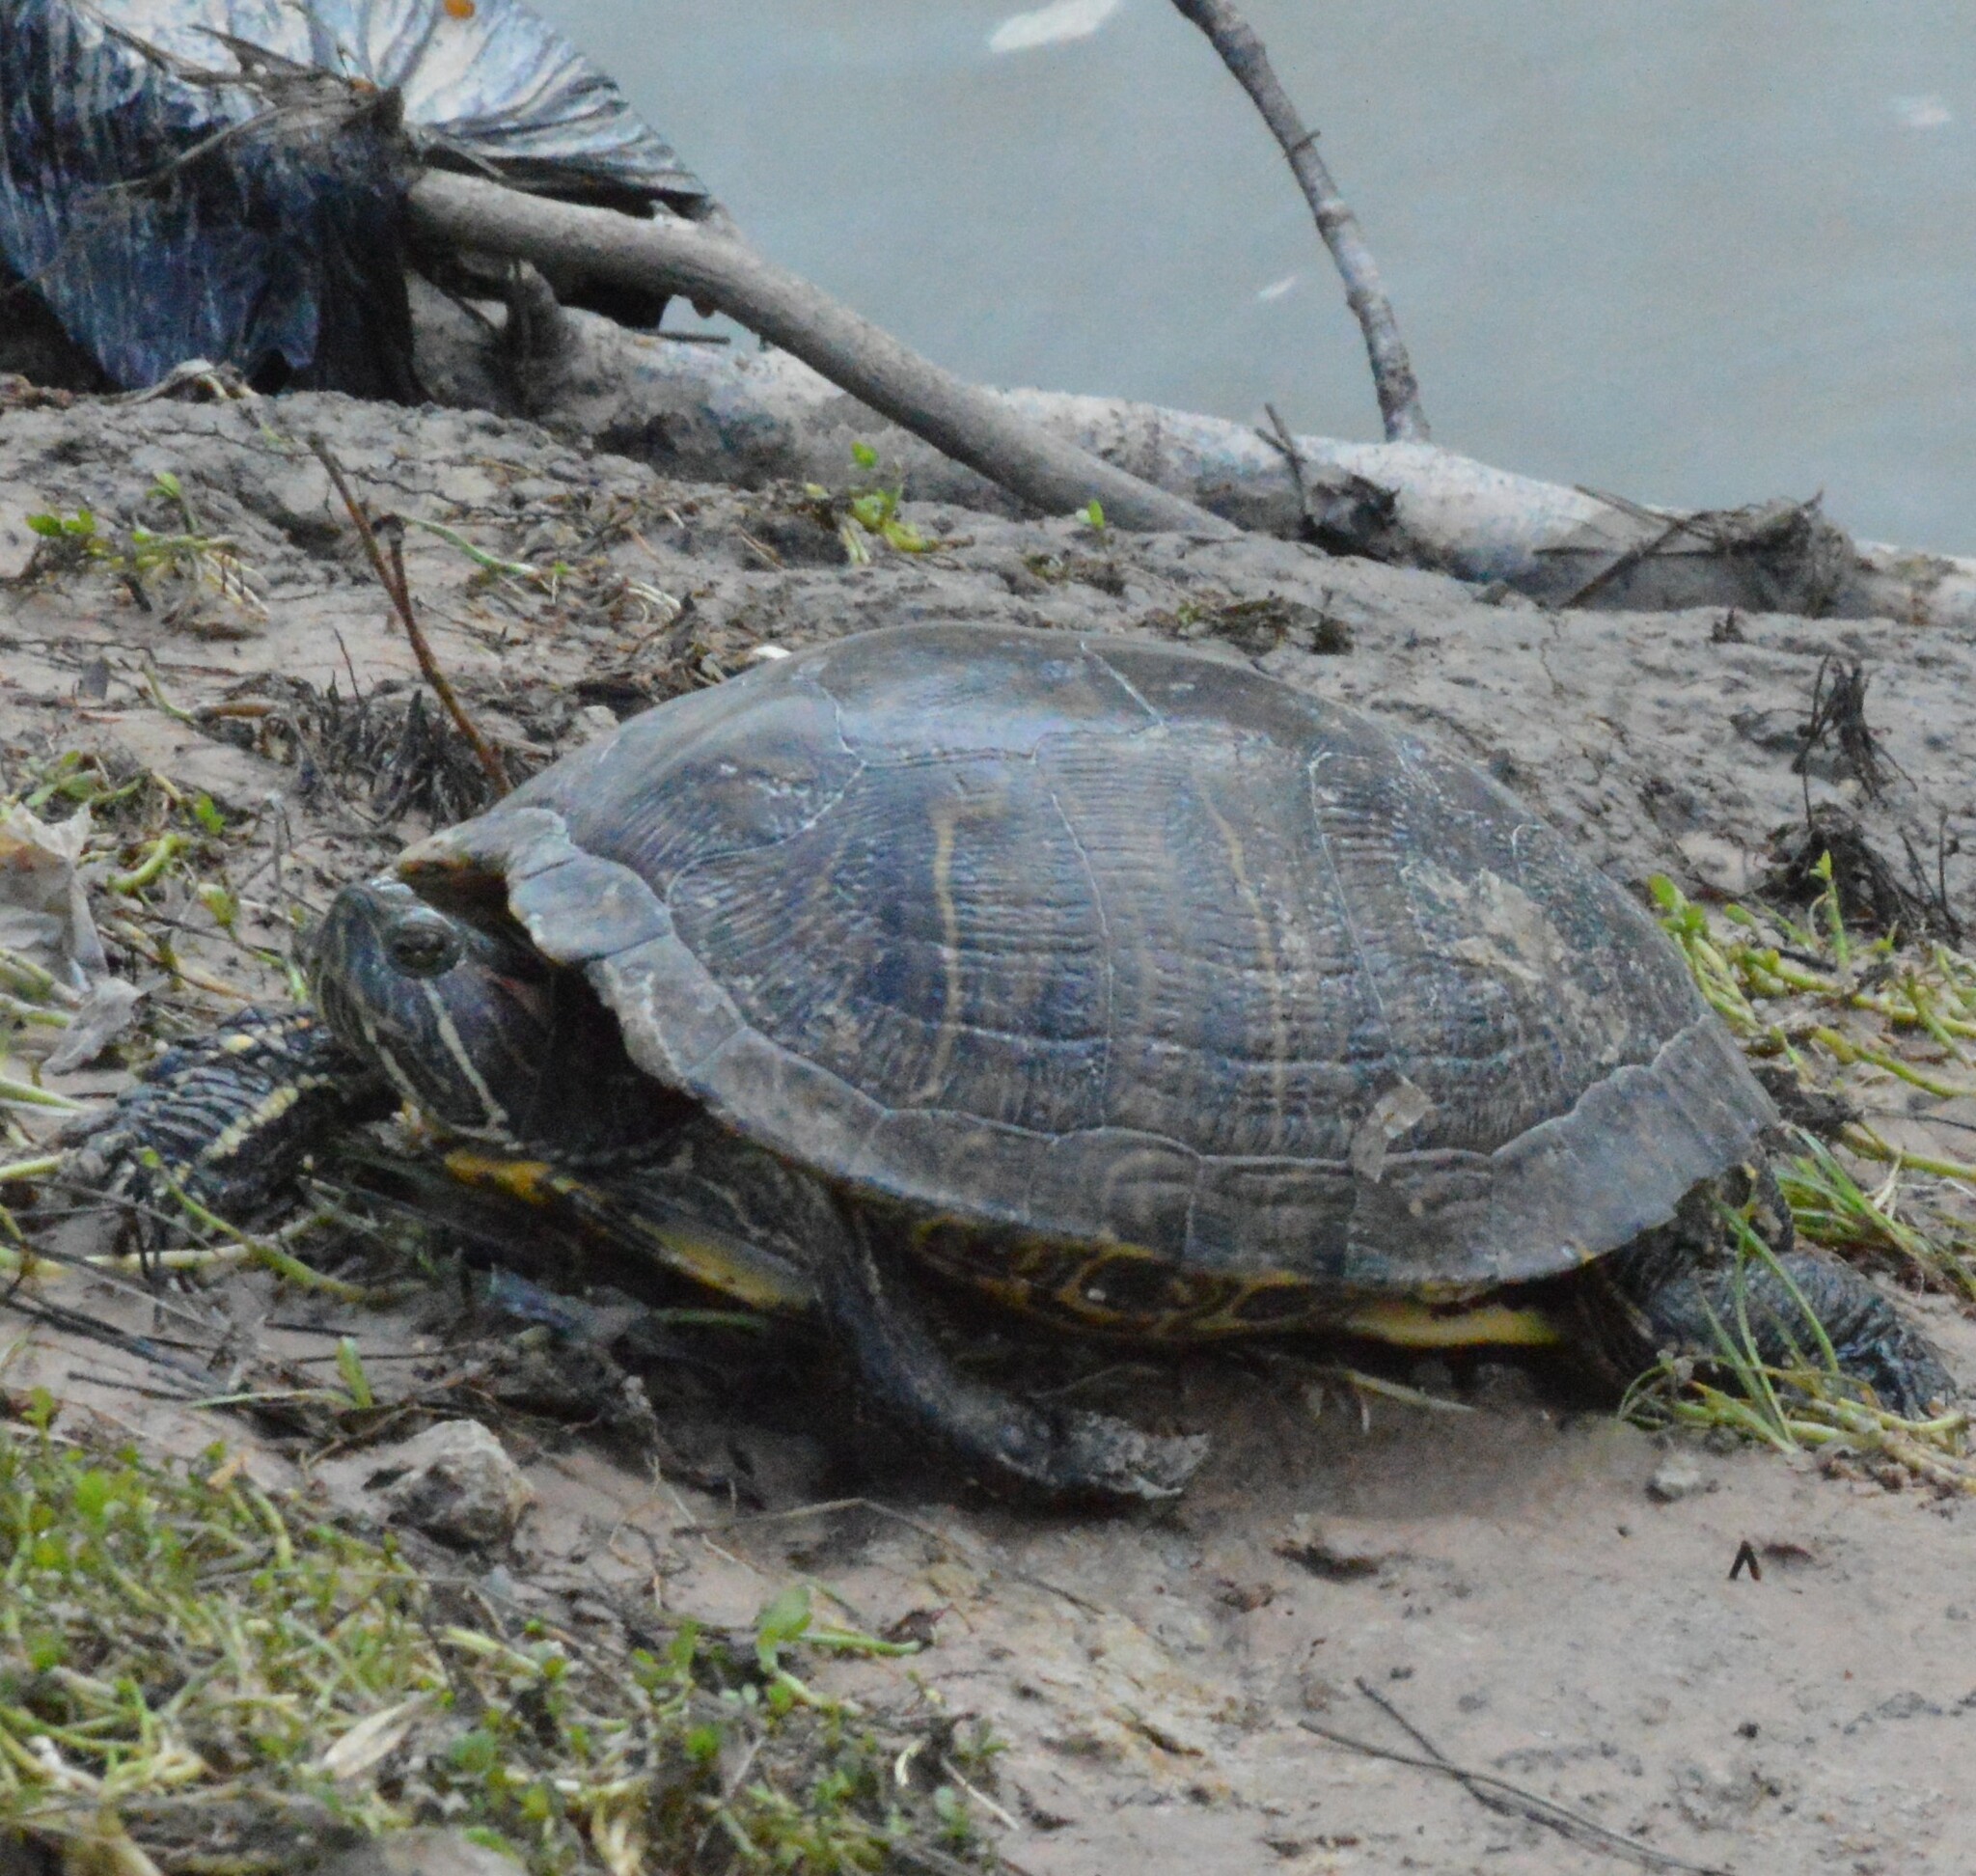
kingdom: Animalia
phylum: Chordata
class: Testudines
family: Emydidae
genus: Trachemys
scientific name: Trachemys scripta
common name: Slider
